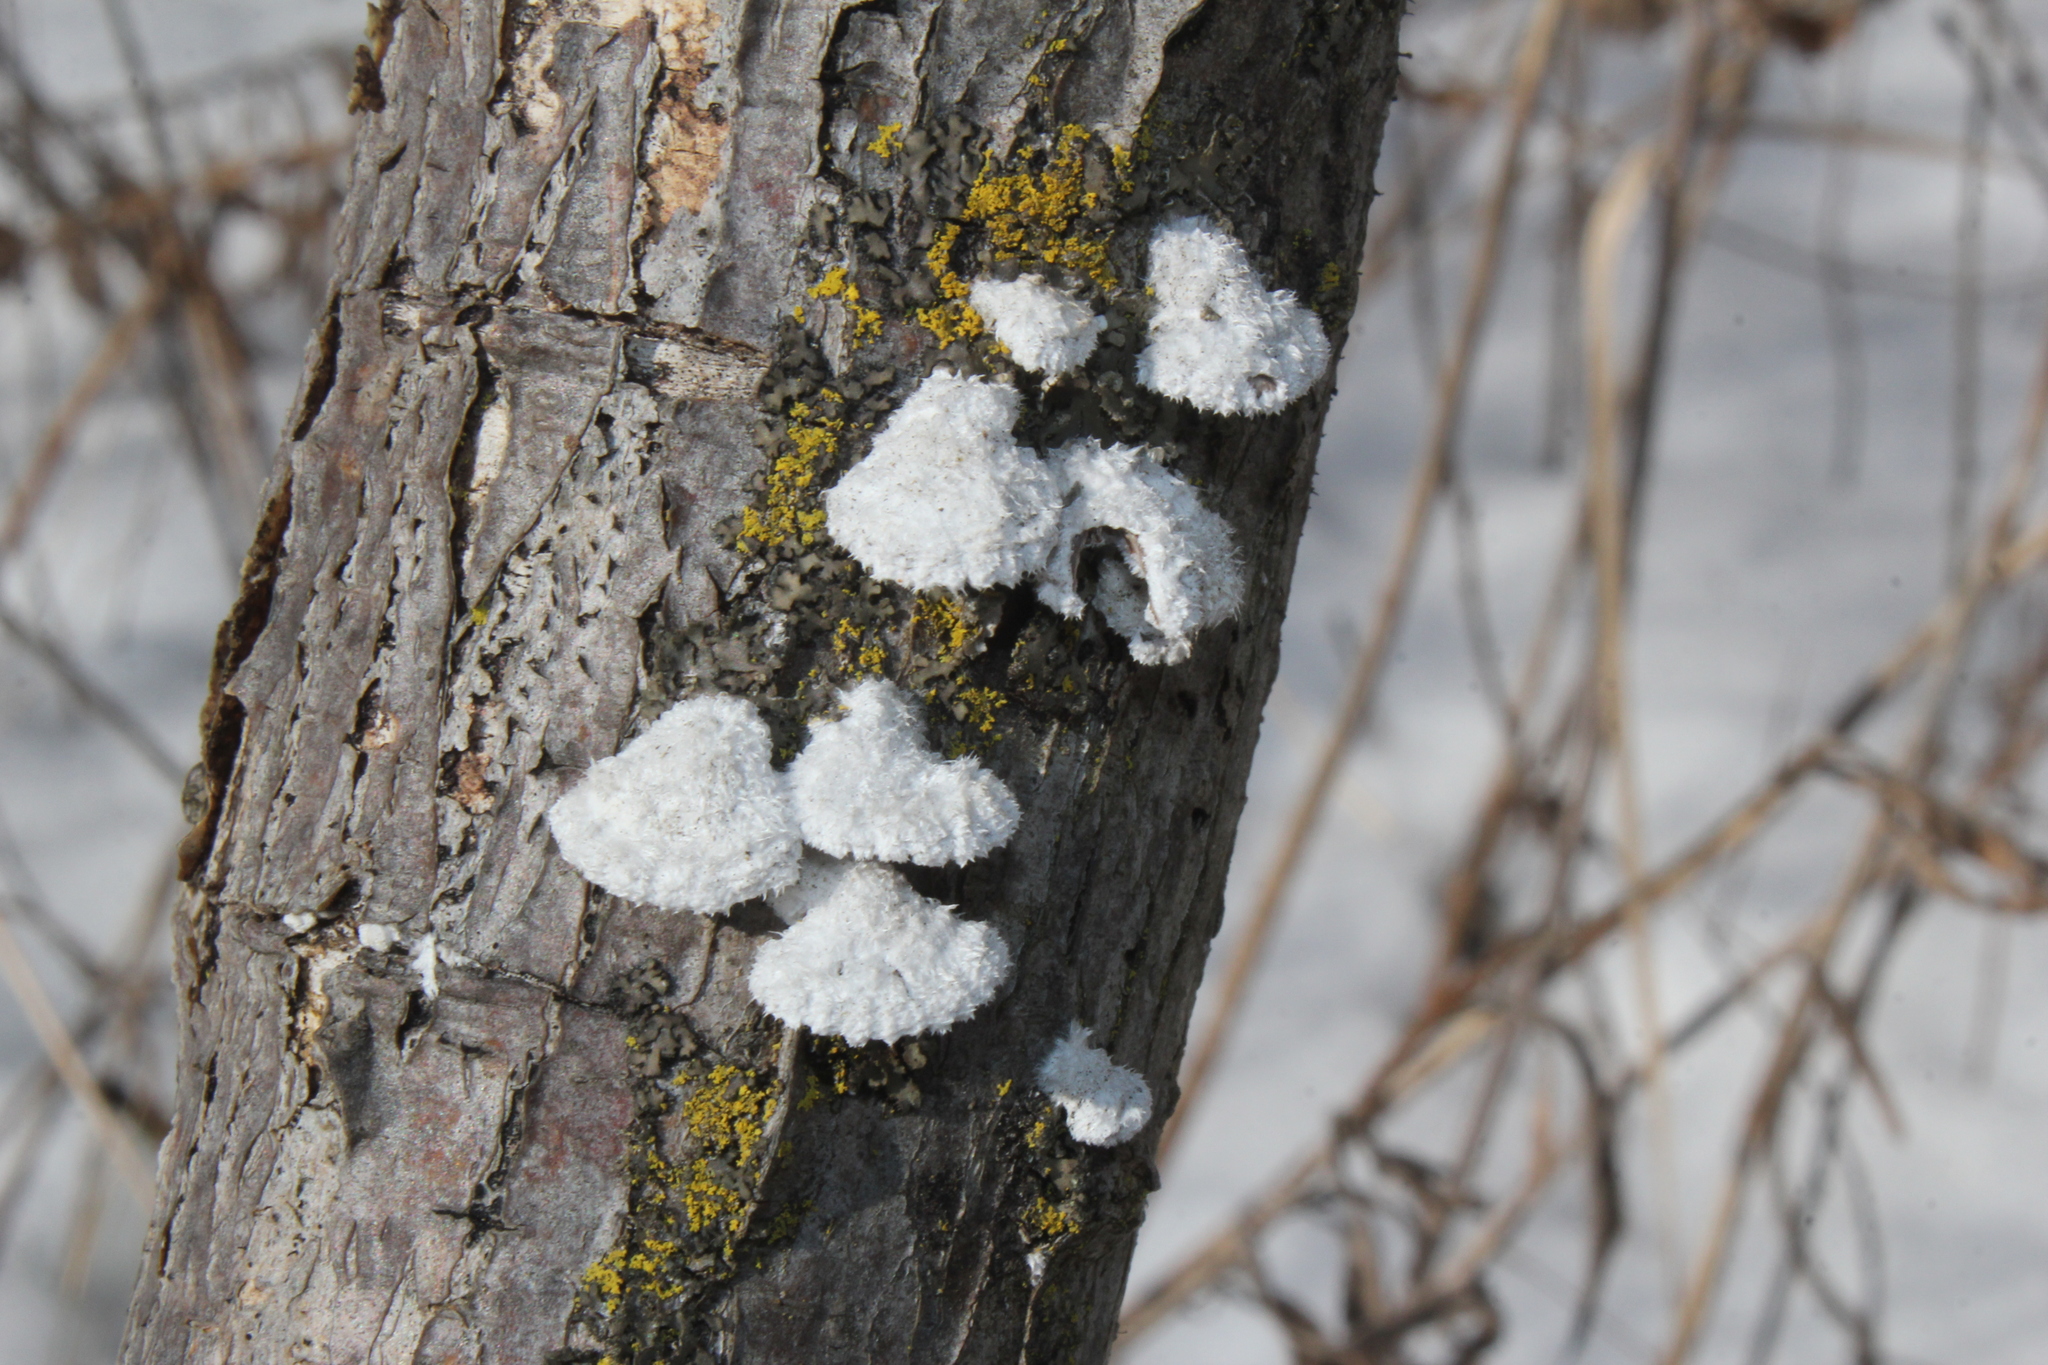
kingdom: Fungi
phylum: Basidiomycota
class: Agaricomycetes
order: Agaricales
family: Schizophyllaceae
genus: Schizophyllum
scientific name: Schizophyllum commune
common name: Common porecrust
